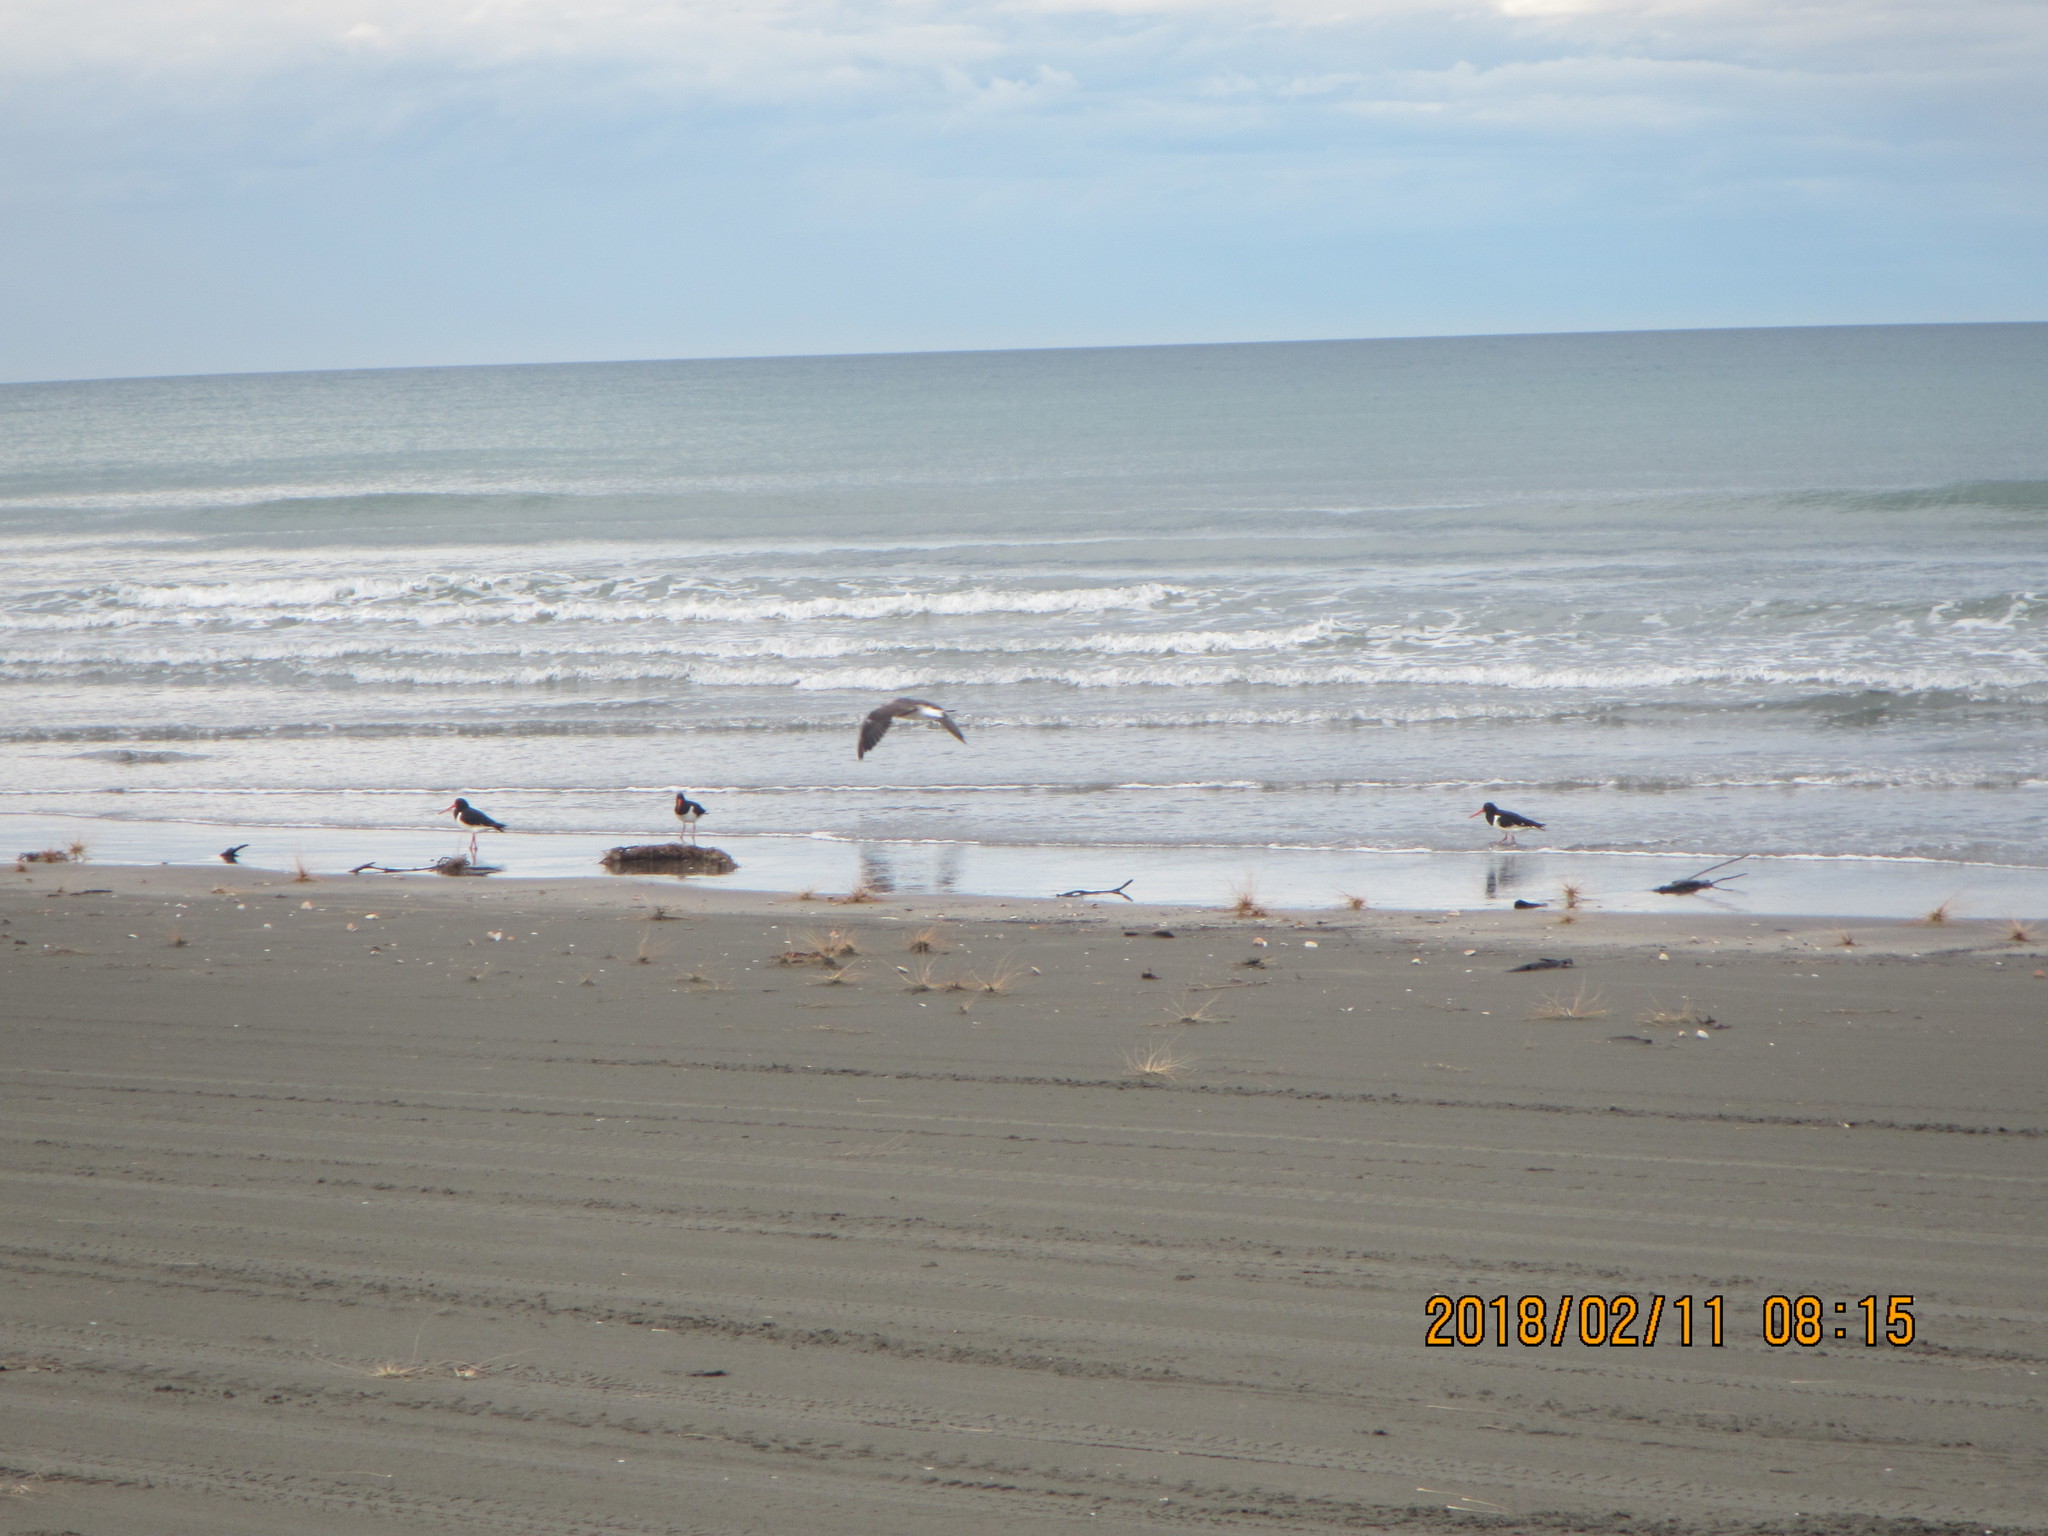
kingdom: Animalia
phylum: Chordata
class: Aves
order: Charadriiformes
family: Haematopodidae
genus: Haematopus
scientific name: Haematopus finschi
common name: South island oystercatcher
